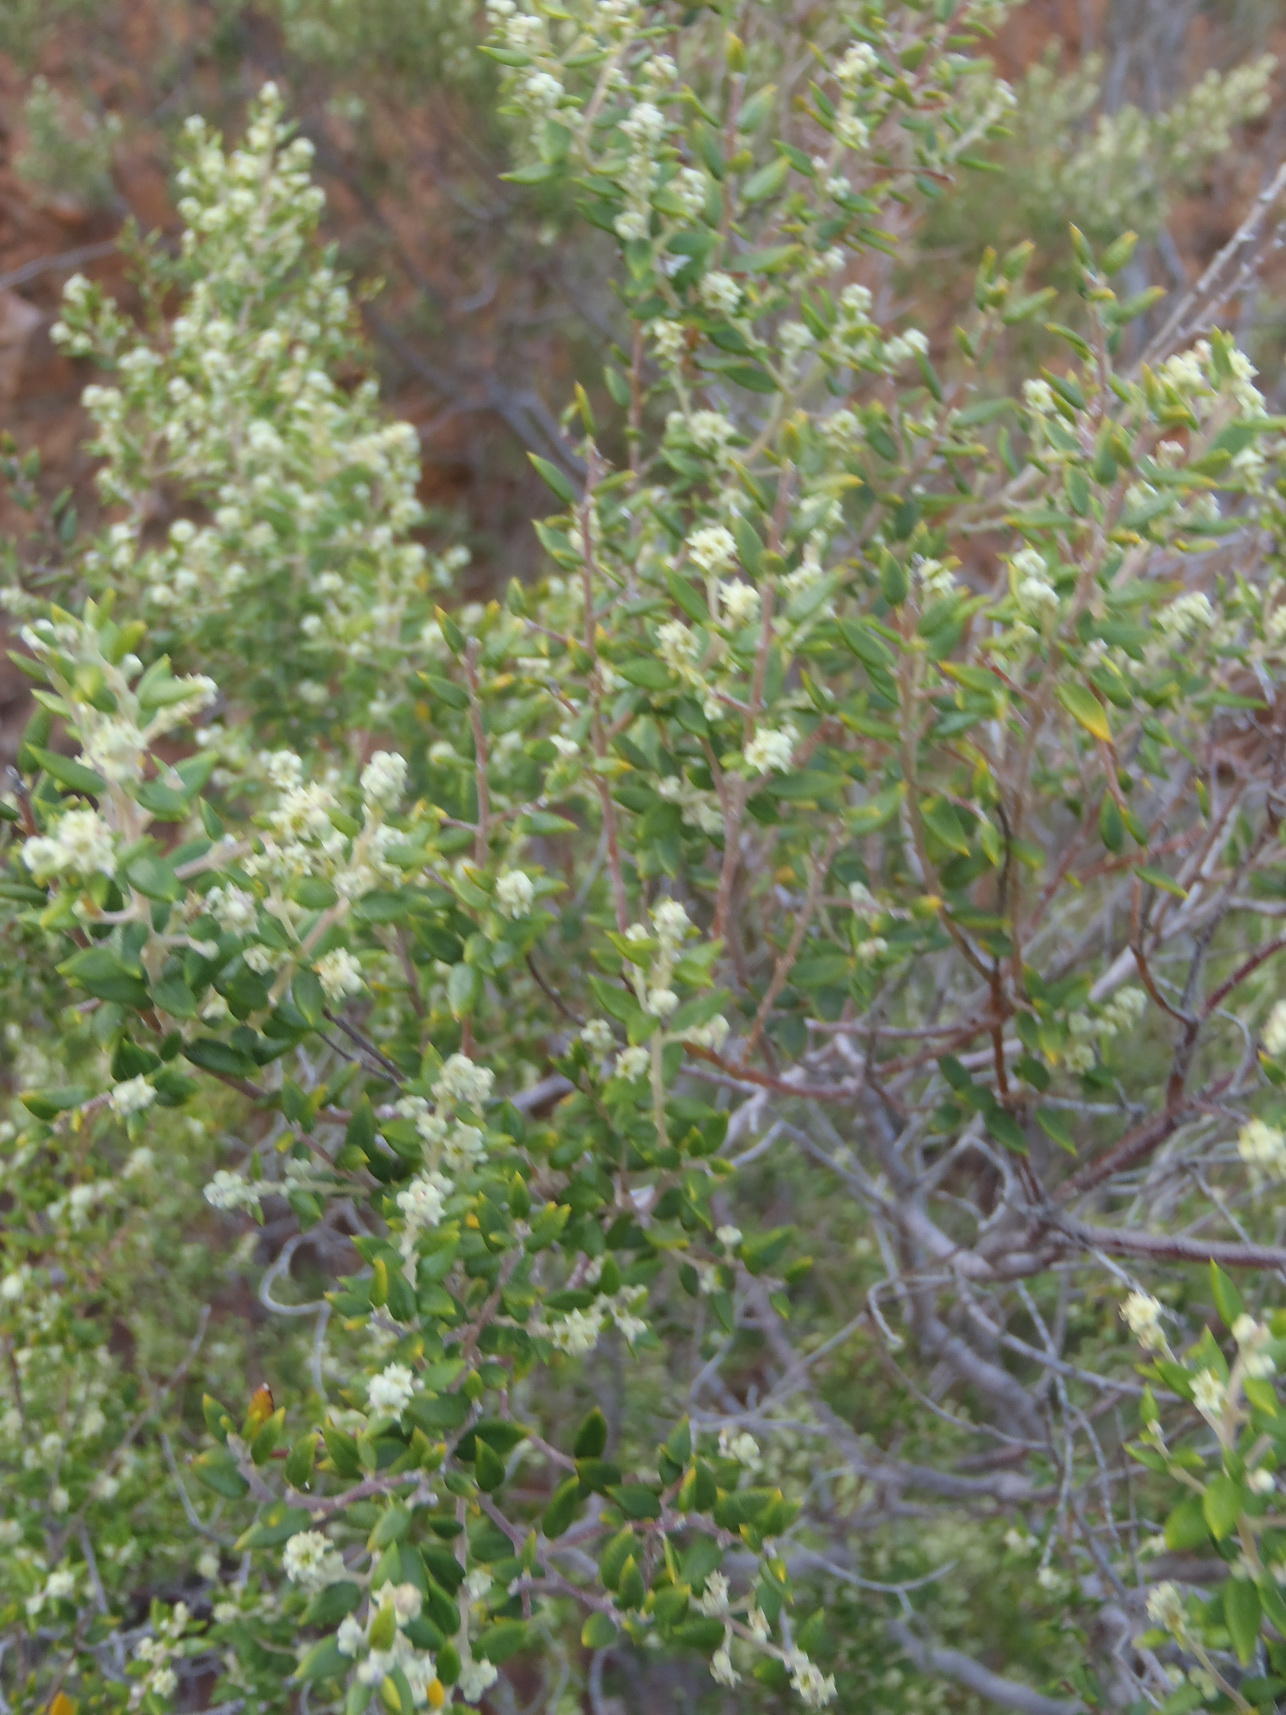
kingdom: Plantae
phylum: Tracheophyta
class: Magnoliopsida
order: Rosales
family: Rhamnaceae
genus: Phylica
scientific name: Phylica paniculata
